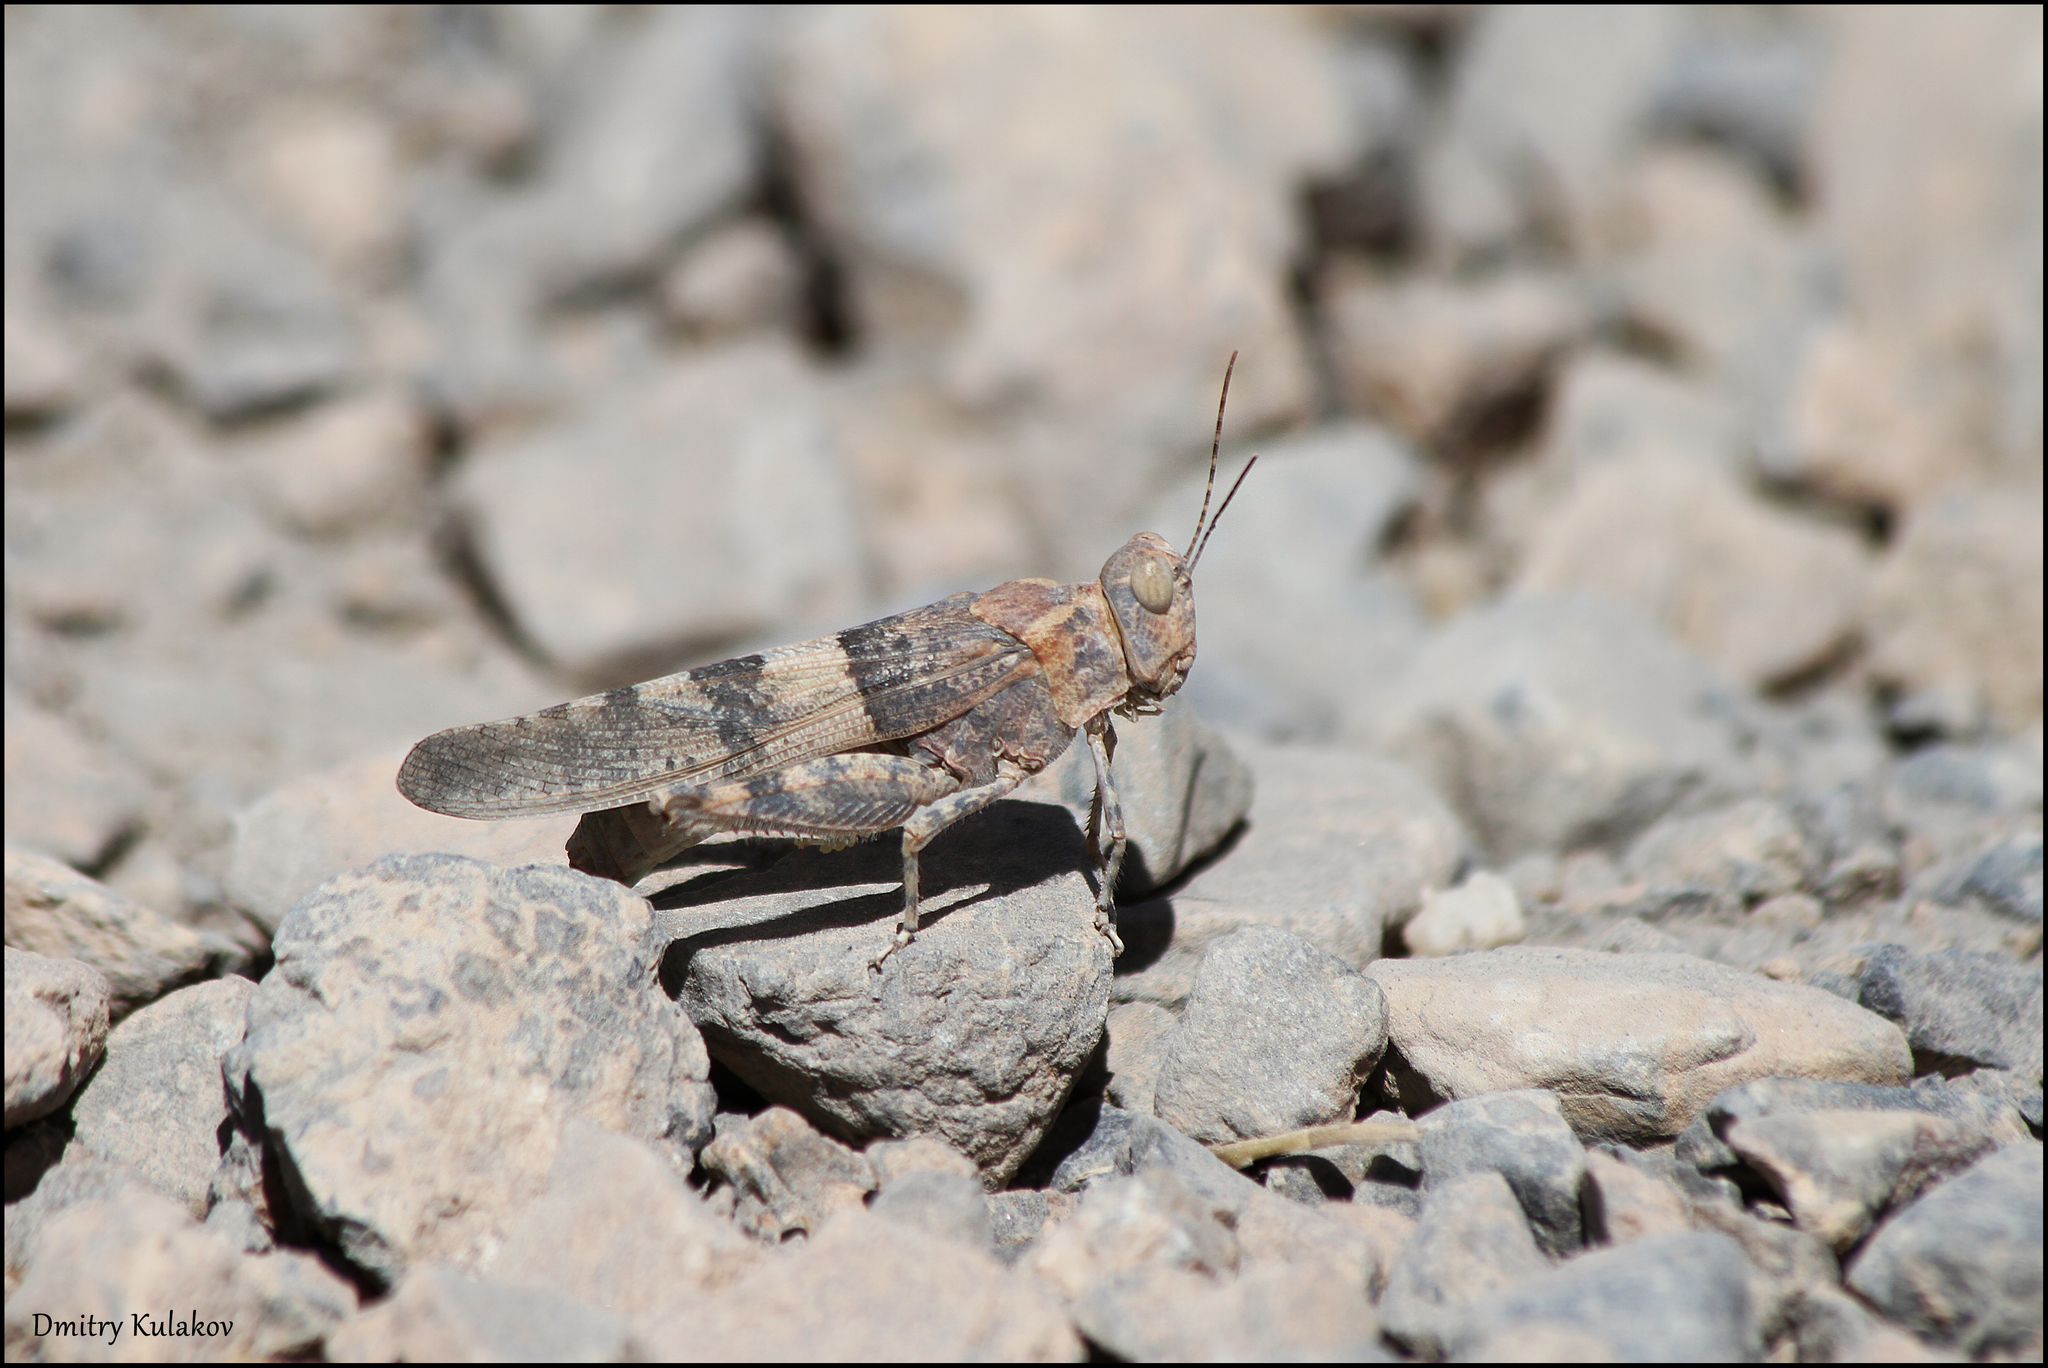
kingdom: Animalia
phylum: Arthropoda
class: Insecta
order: Orthoptera
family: Acrididae
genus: Sphingonotus
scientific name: Sphingonotus rubescens
